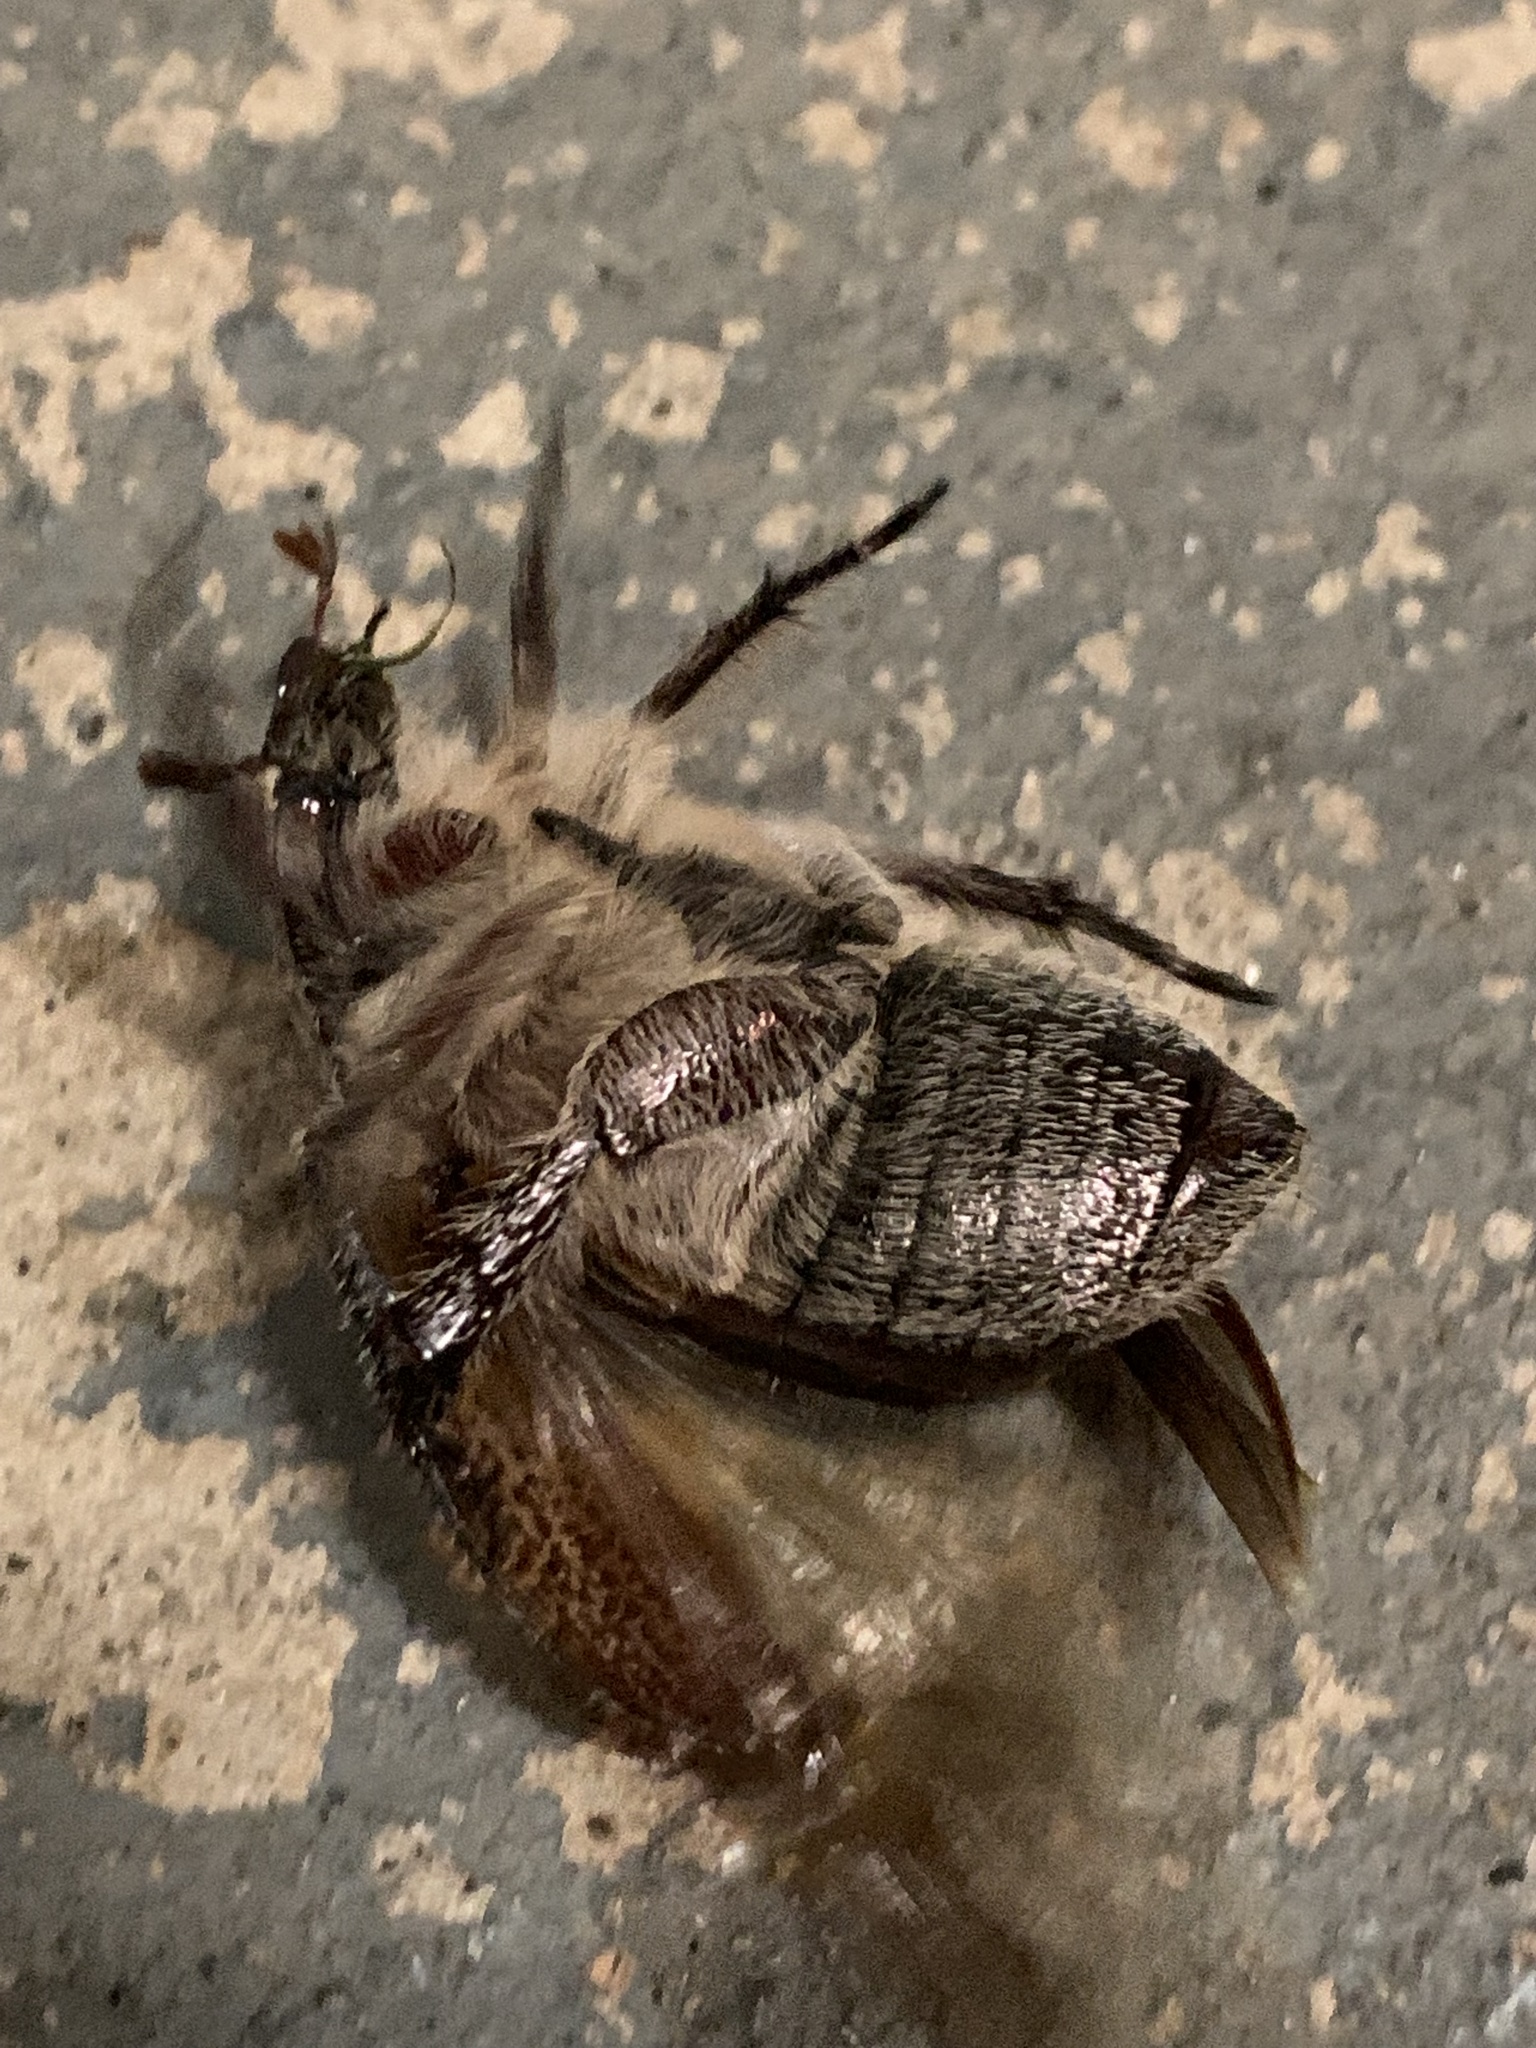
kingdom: Animalia
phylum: Arthropoda
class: Insecta
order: Coleoptera
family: Scarabaeidae
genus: Anoplognathus
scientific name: Anoplognathus velutinus
